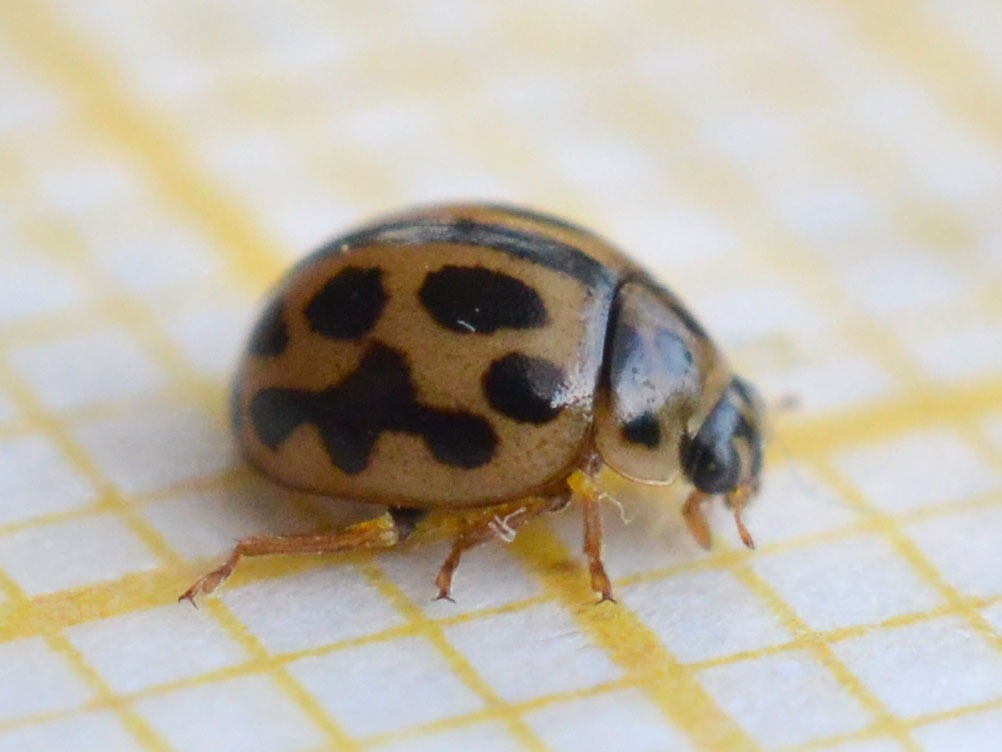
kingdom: Animalia
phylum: Arthropoda
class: Insecta
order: Coleoptera
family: Coccinellidae
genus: Tytthaspis
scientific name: Tytthaspis sedecimpunctata
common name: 16-spot ladybird
